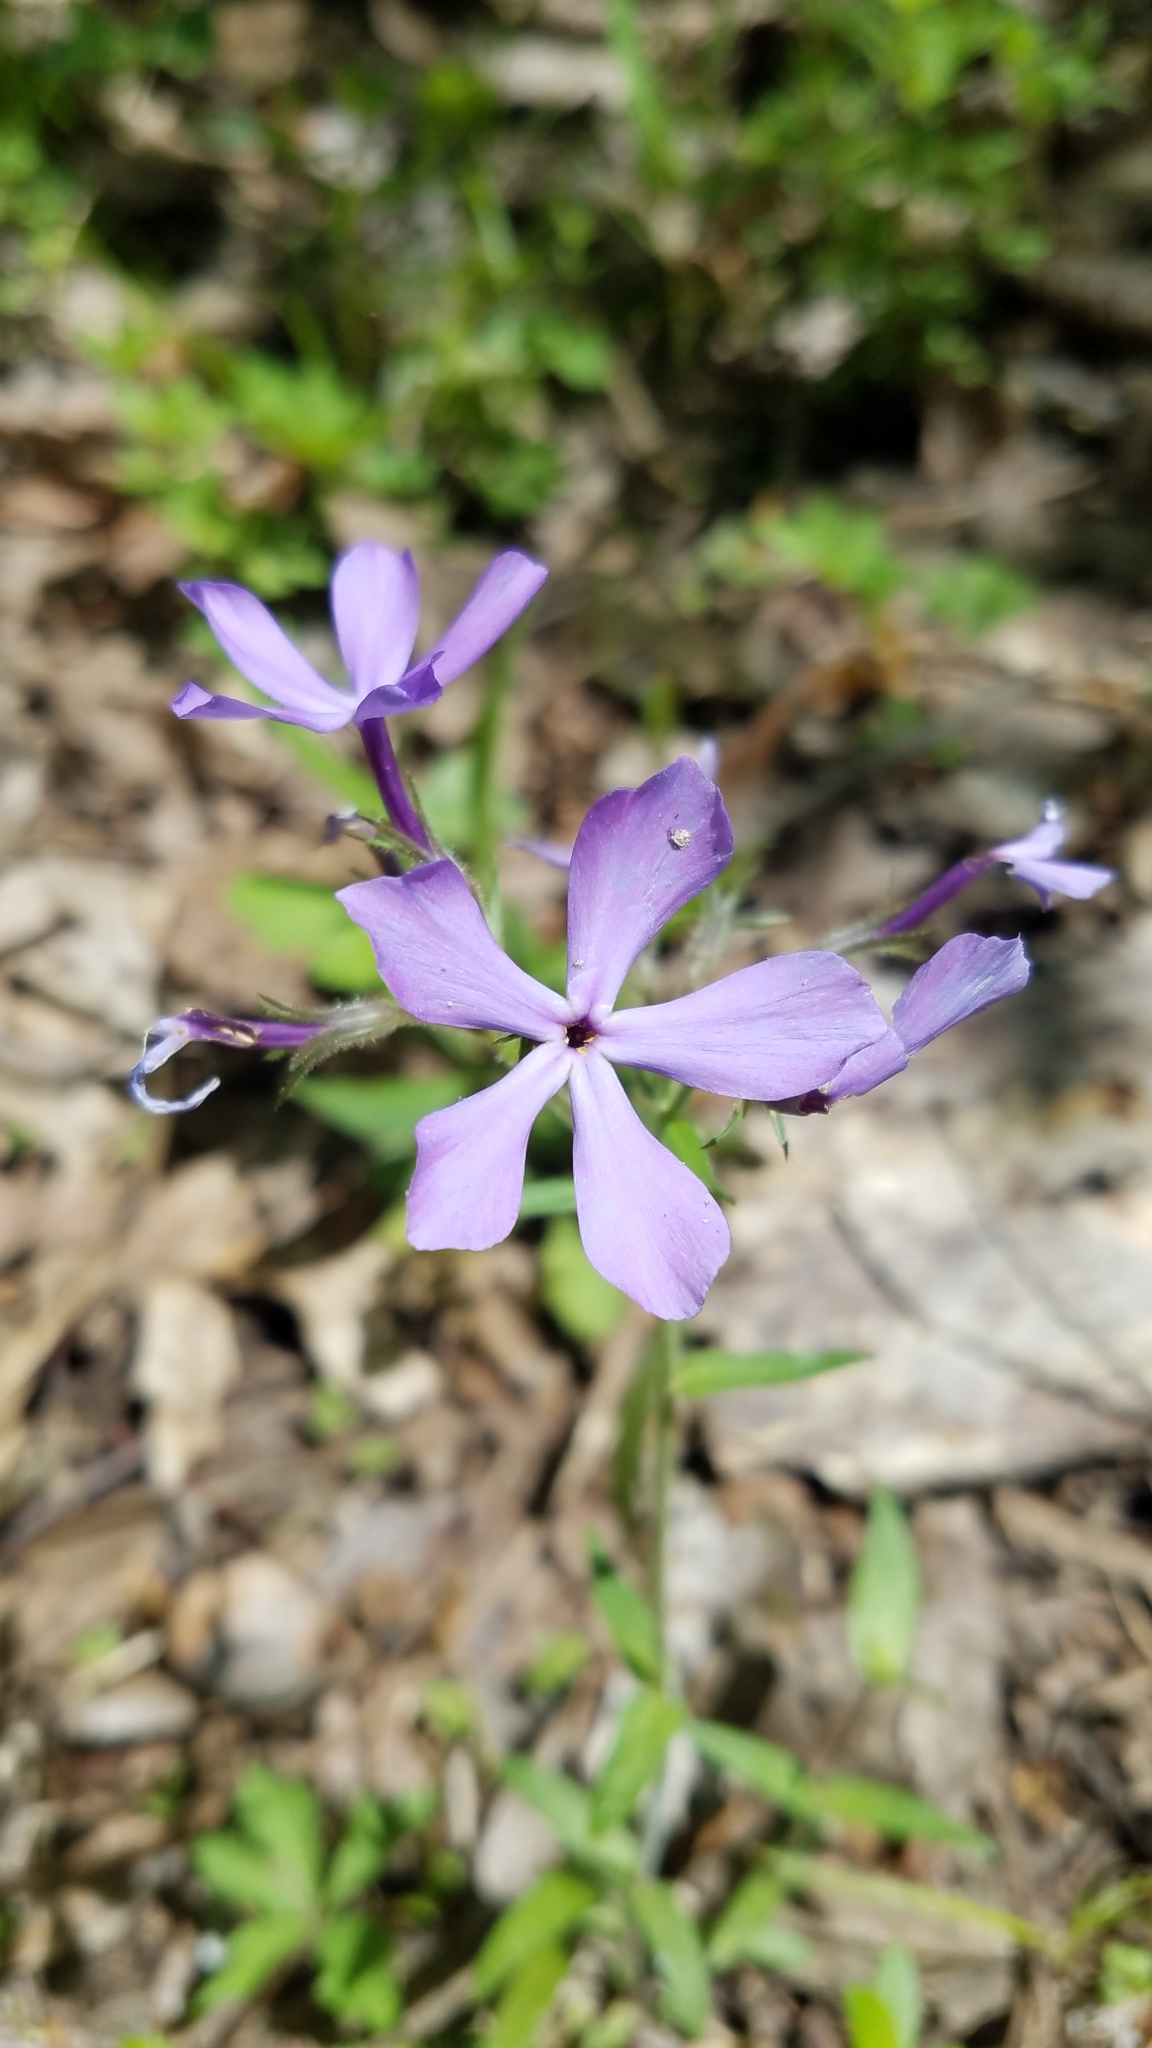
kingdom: Plantae
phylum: Tracheophyta
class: Magnoliopsida
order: Ericales
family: Polemoniaceae
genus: Phlox
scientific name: Phlox divaricata
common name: Blue phlox
